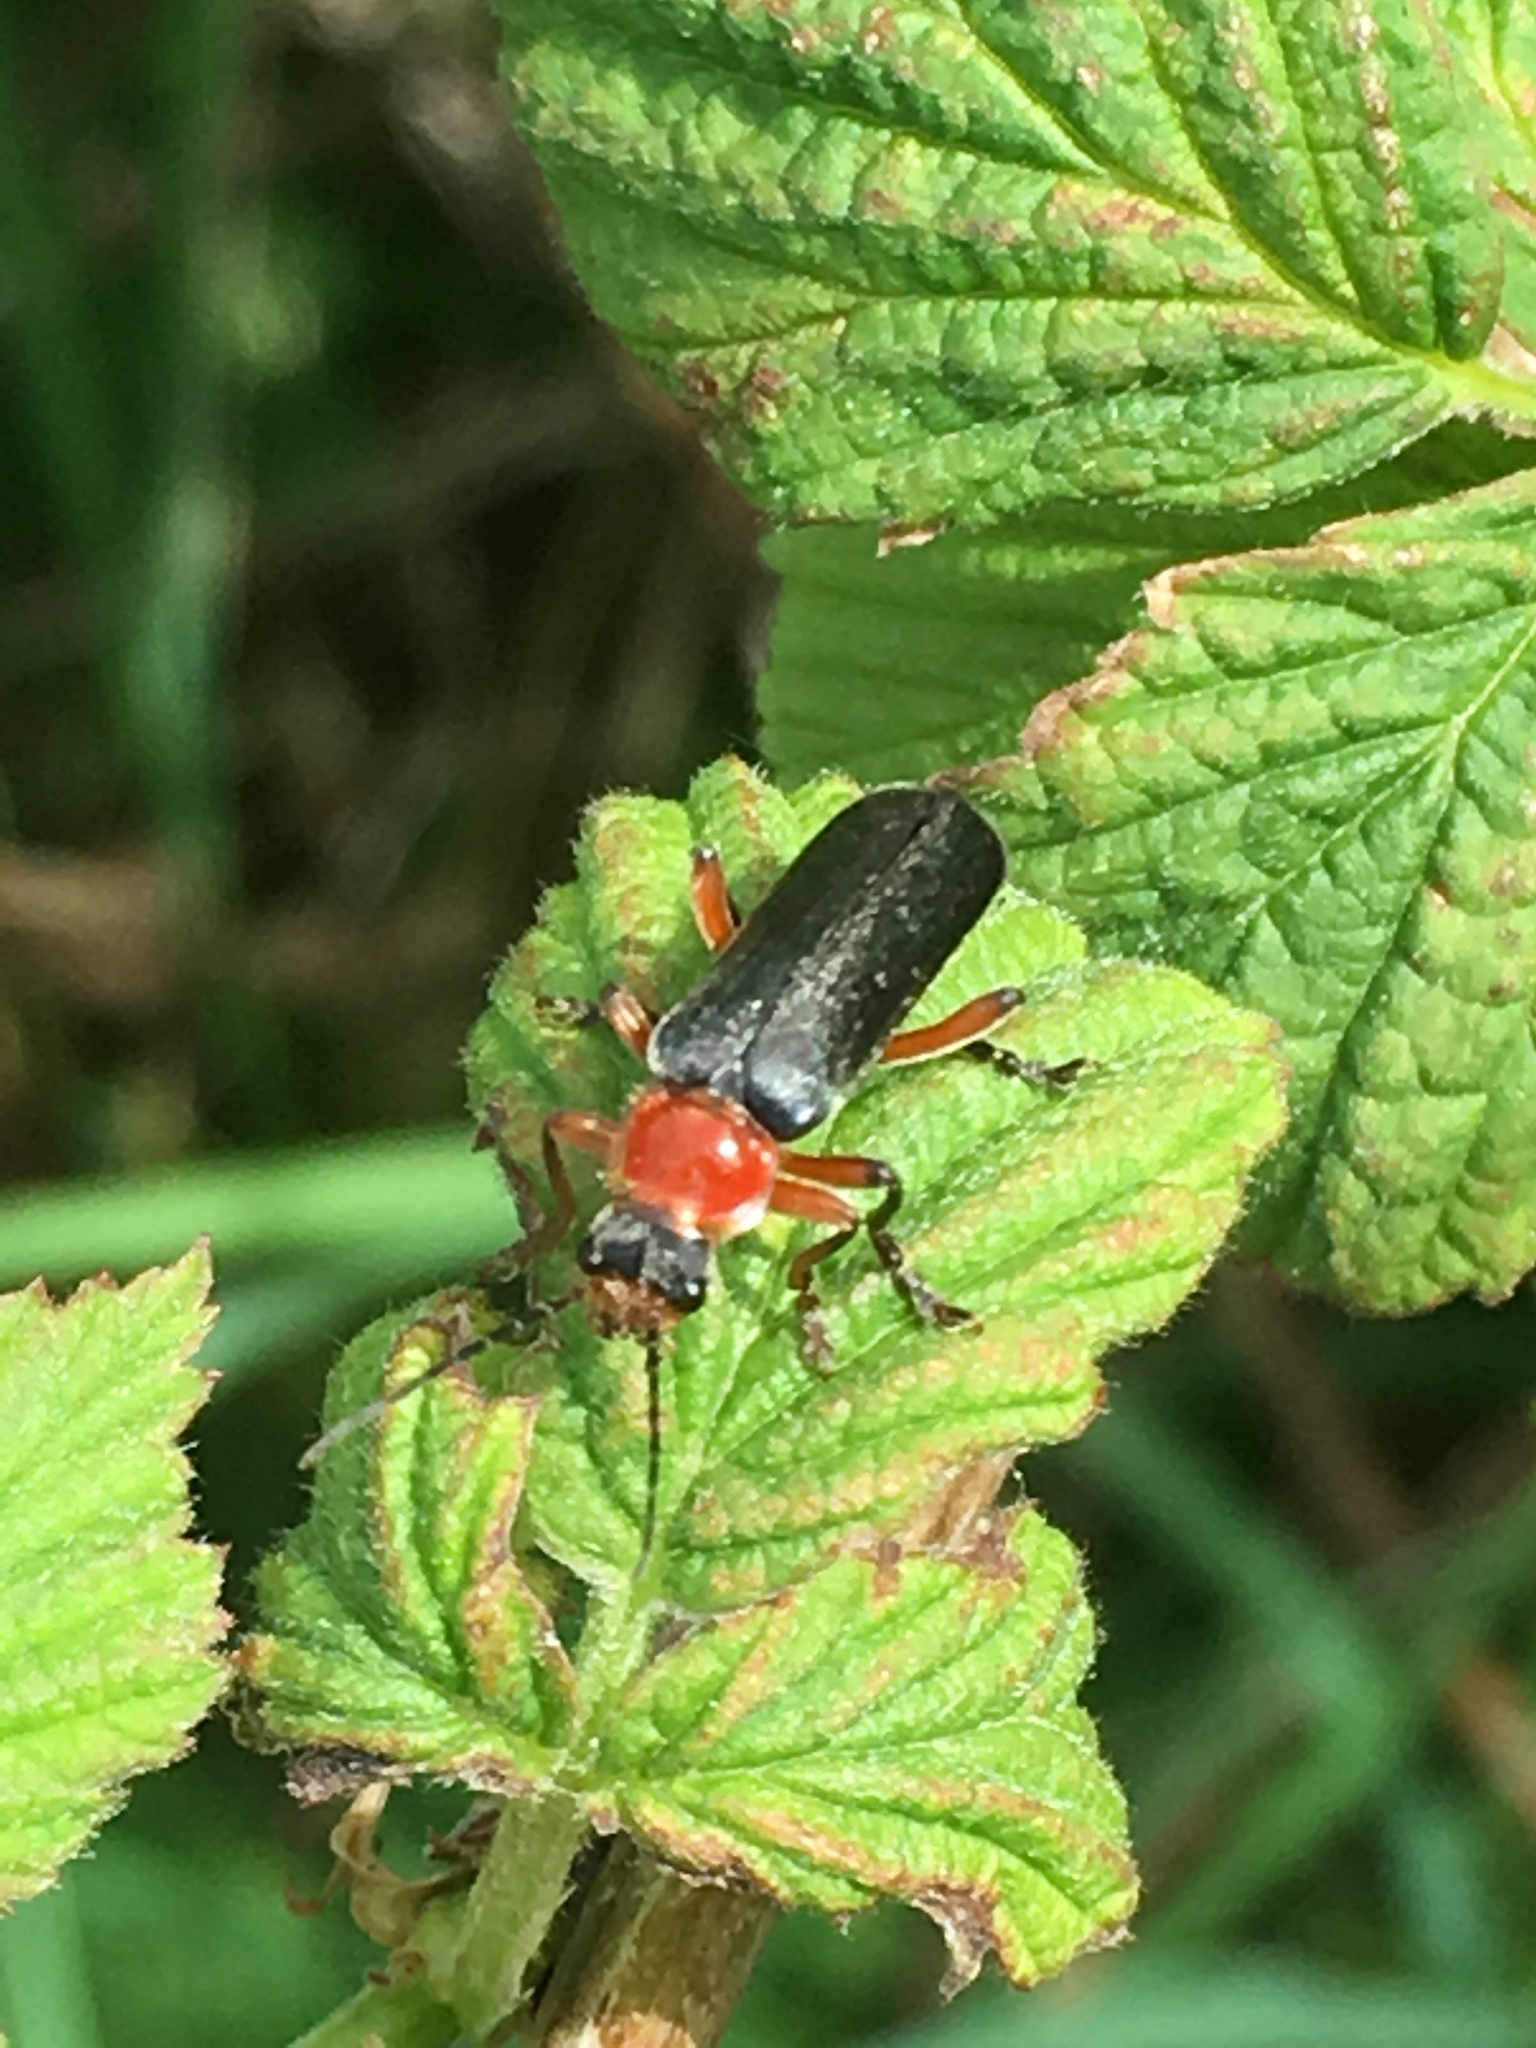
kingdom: Animalia
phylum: Arthropoda
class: Insecta
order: Coleoptera
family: Cantharidae
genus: Cantharis
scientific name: Cantharis pellucida
